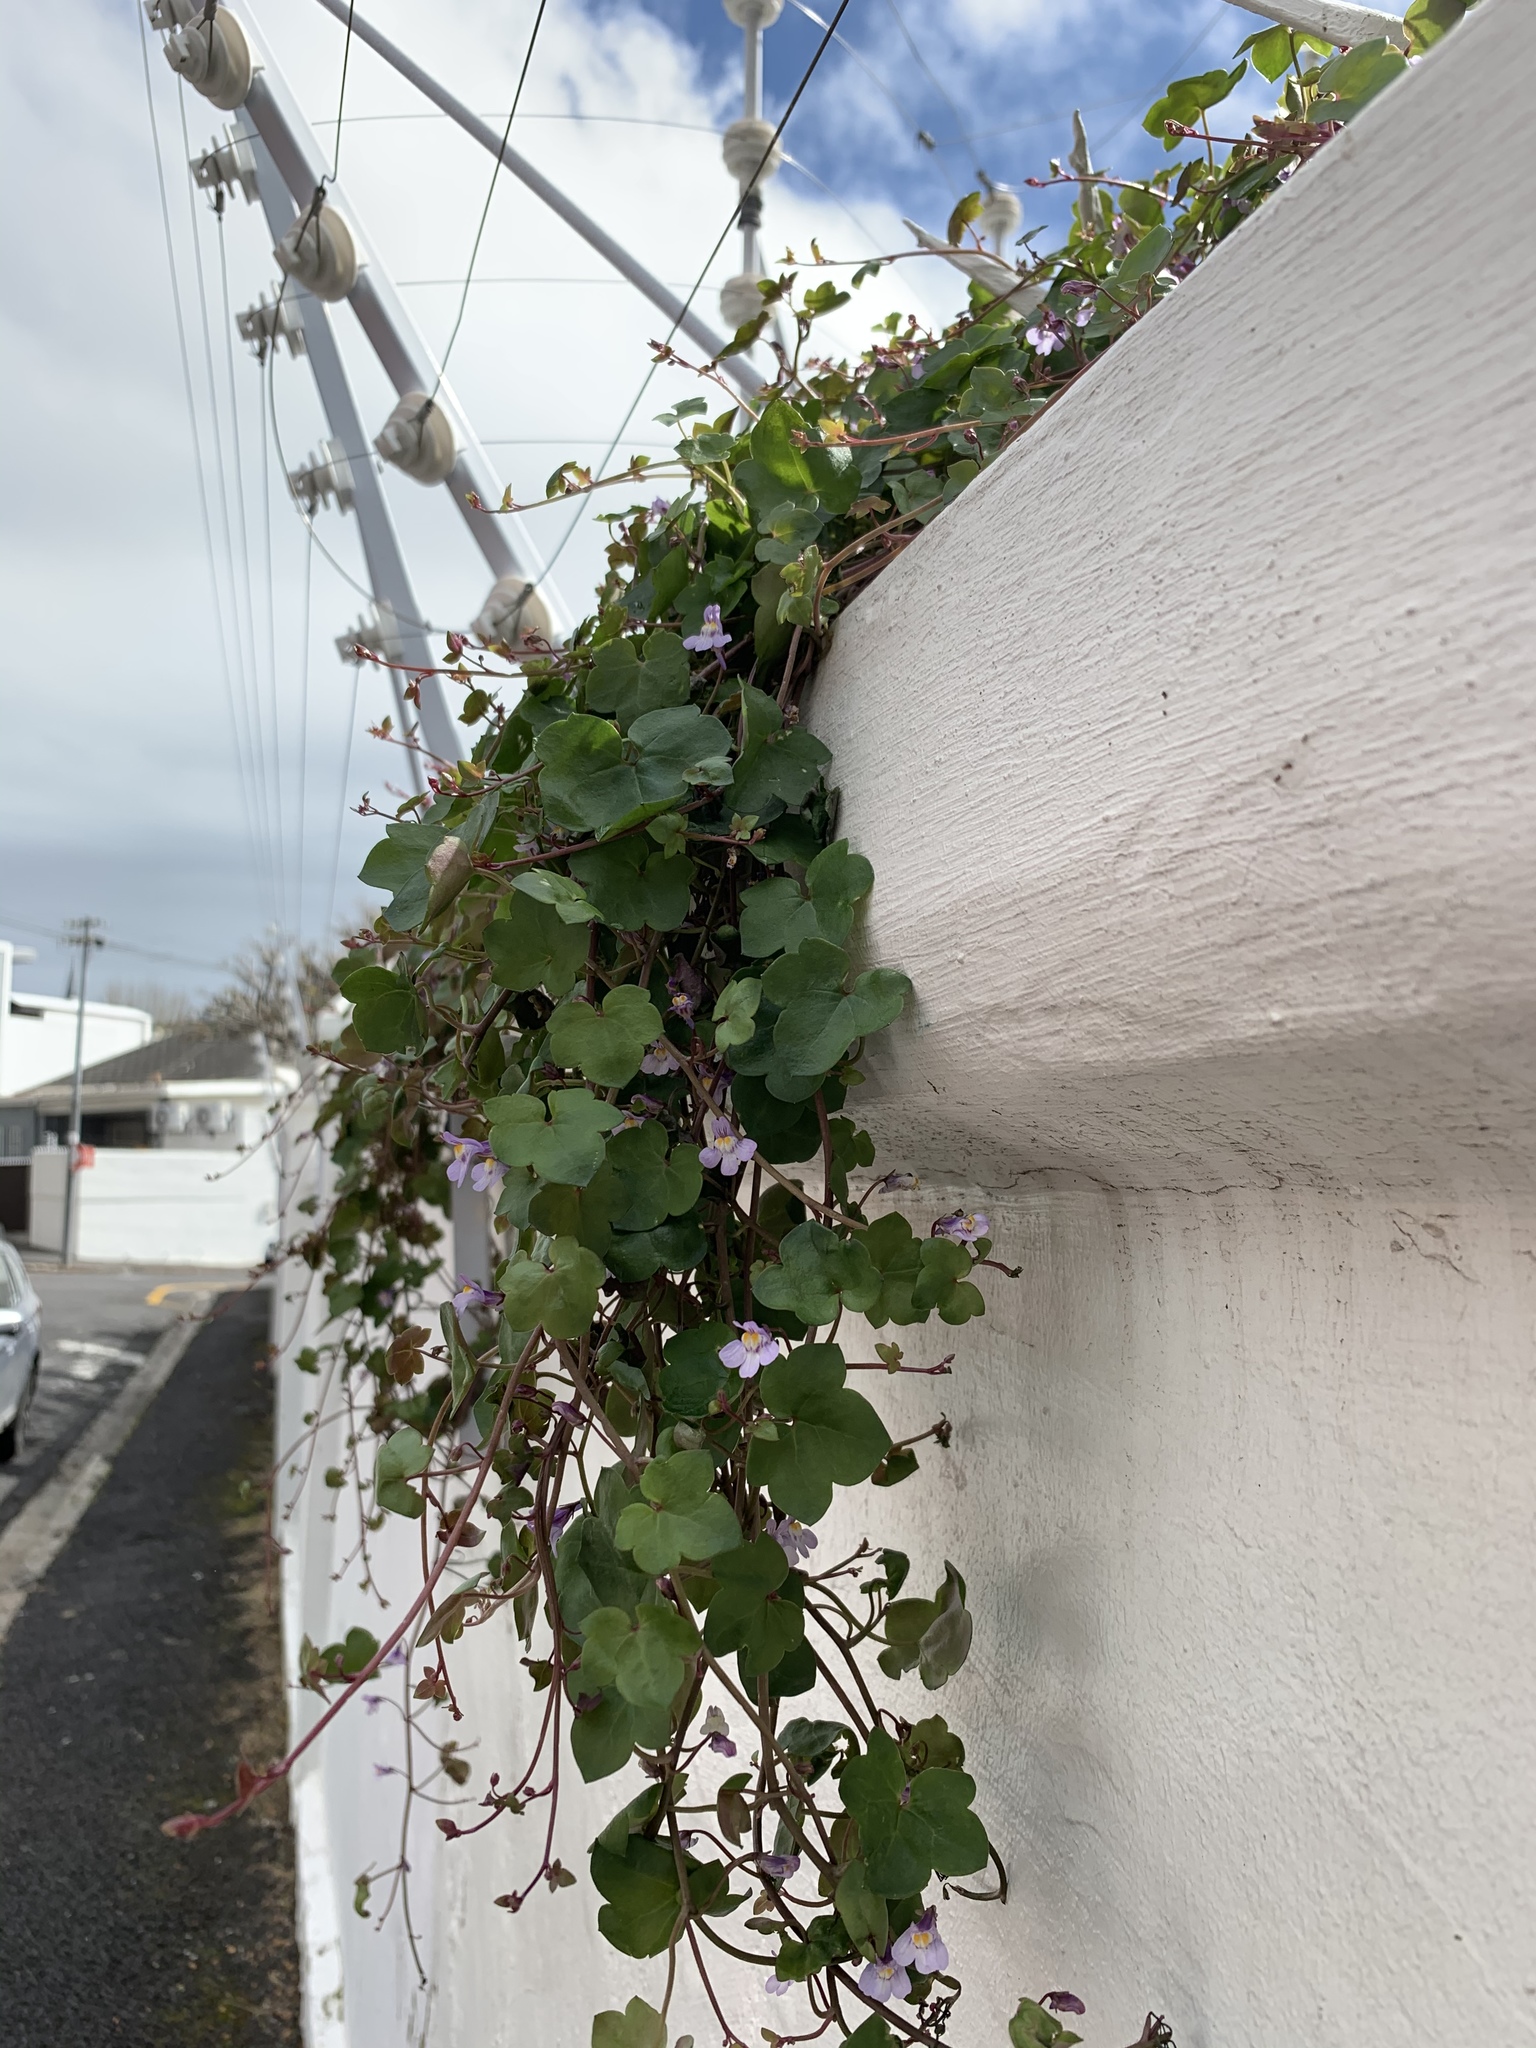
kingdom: Plantae
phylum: Tracheophyta
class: Magnoliopsida
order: Lamiales
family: Plantaginaceae
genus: Cymbalaria
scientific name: Cymbalaria muralis
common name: Ivy-leaved toadflax
